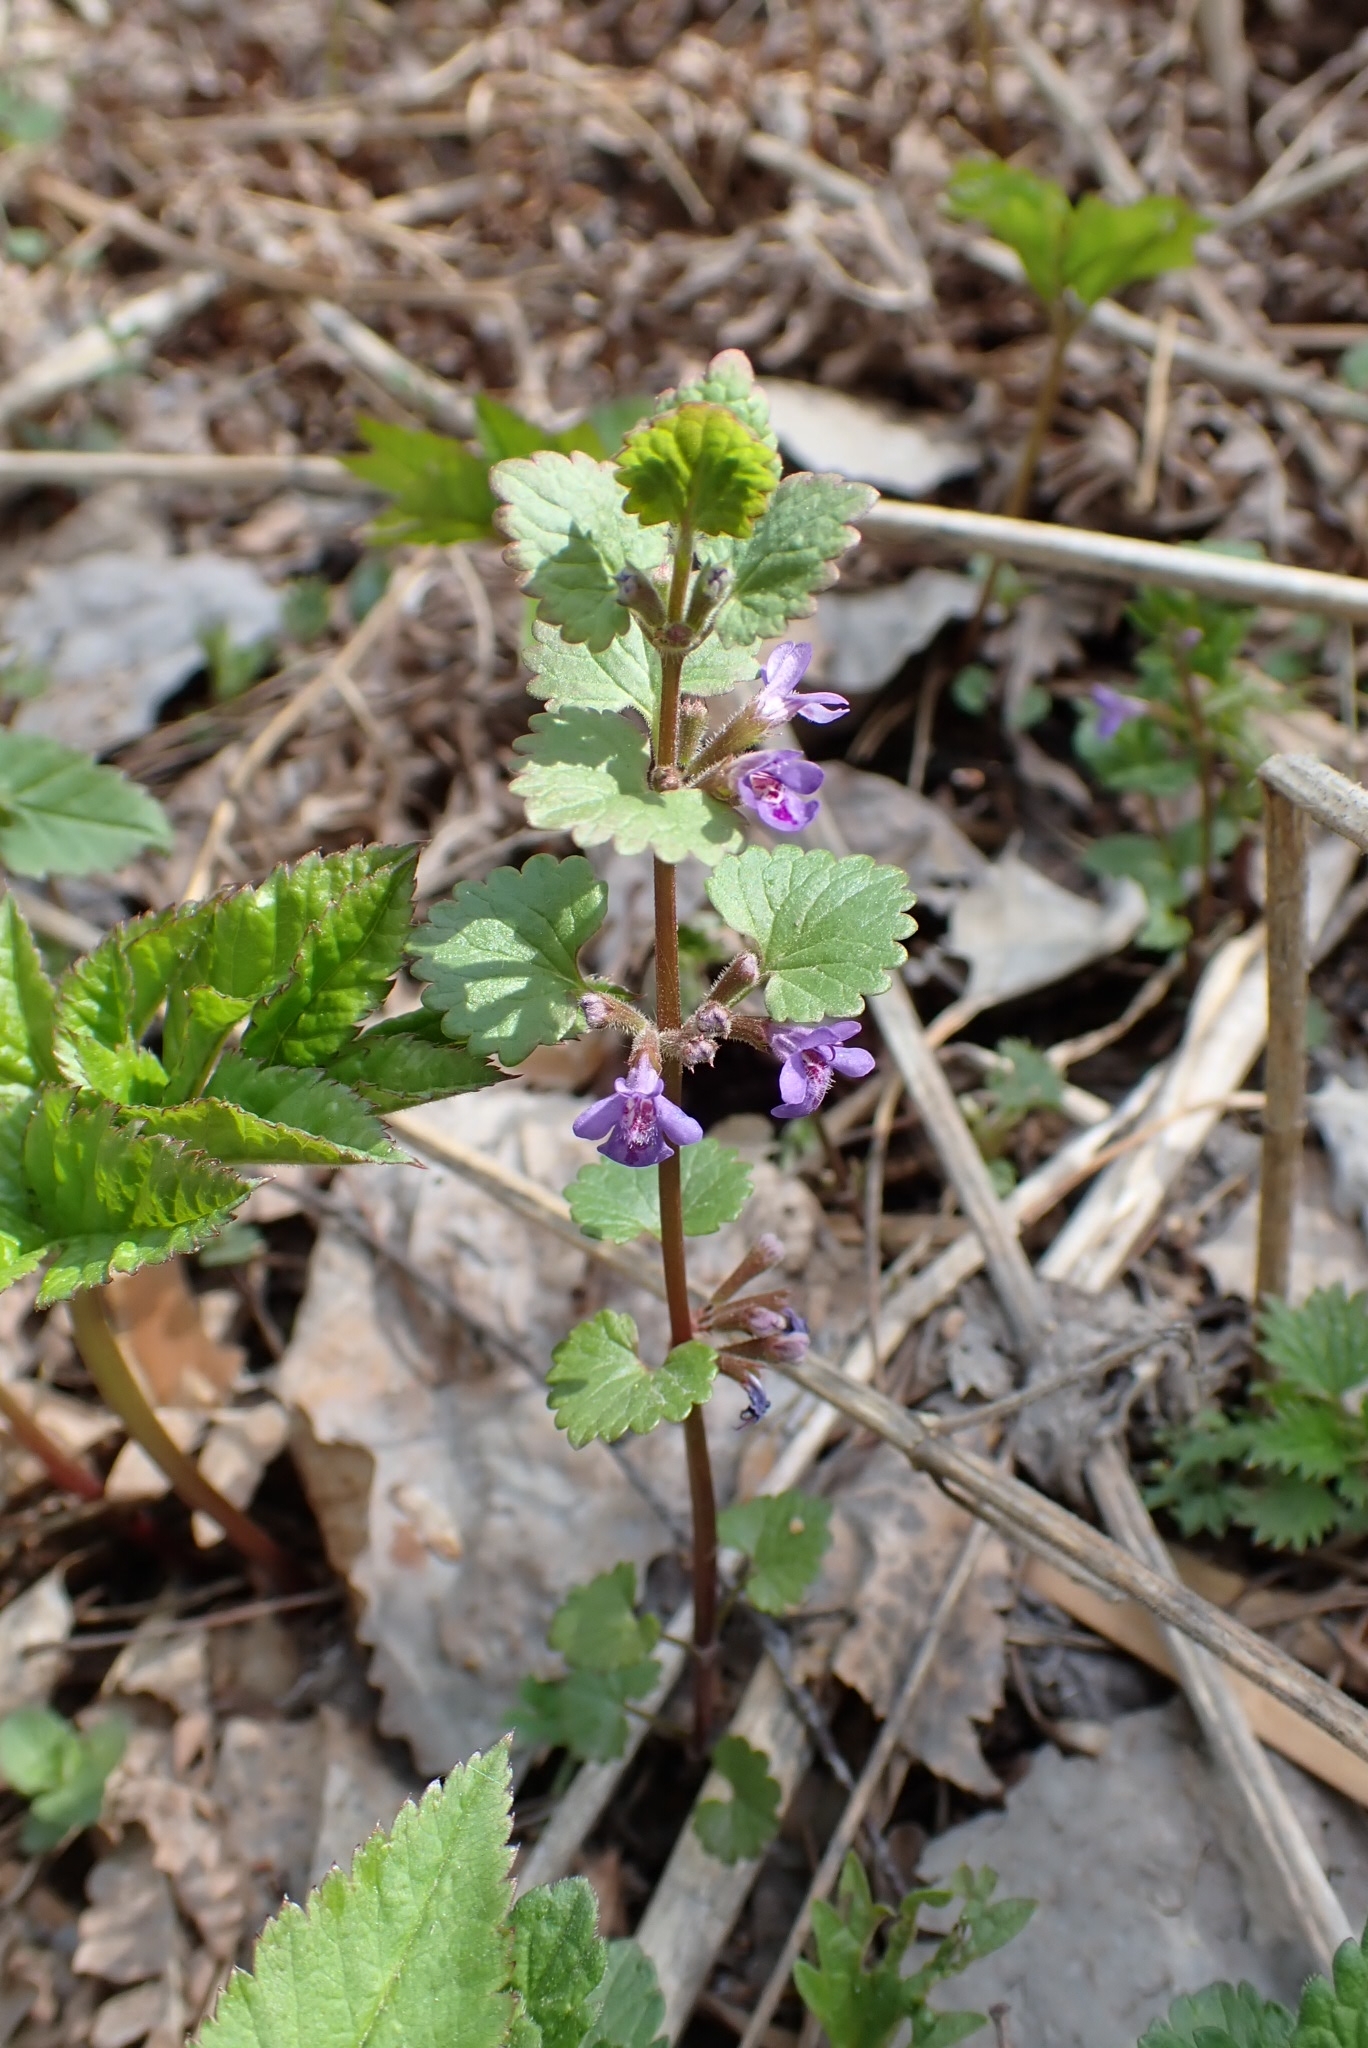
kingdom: Plantae
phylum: Tracheophyta
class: Magnoliopsida
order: Lamiales
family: Lamiaceae
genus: Glechoma
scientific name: Glechoma hederacea
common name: Ground ivy
